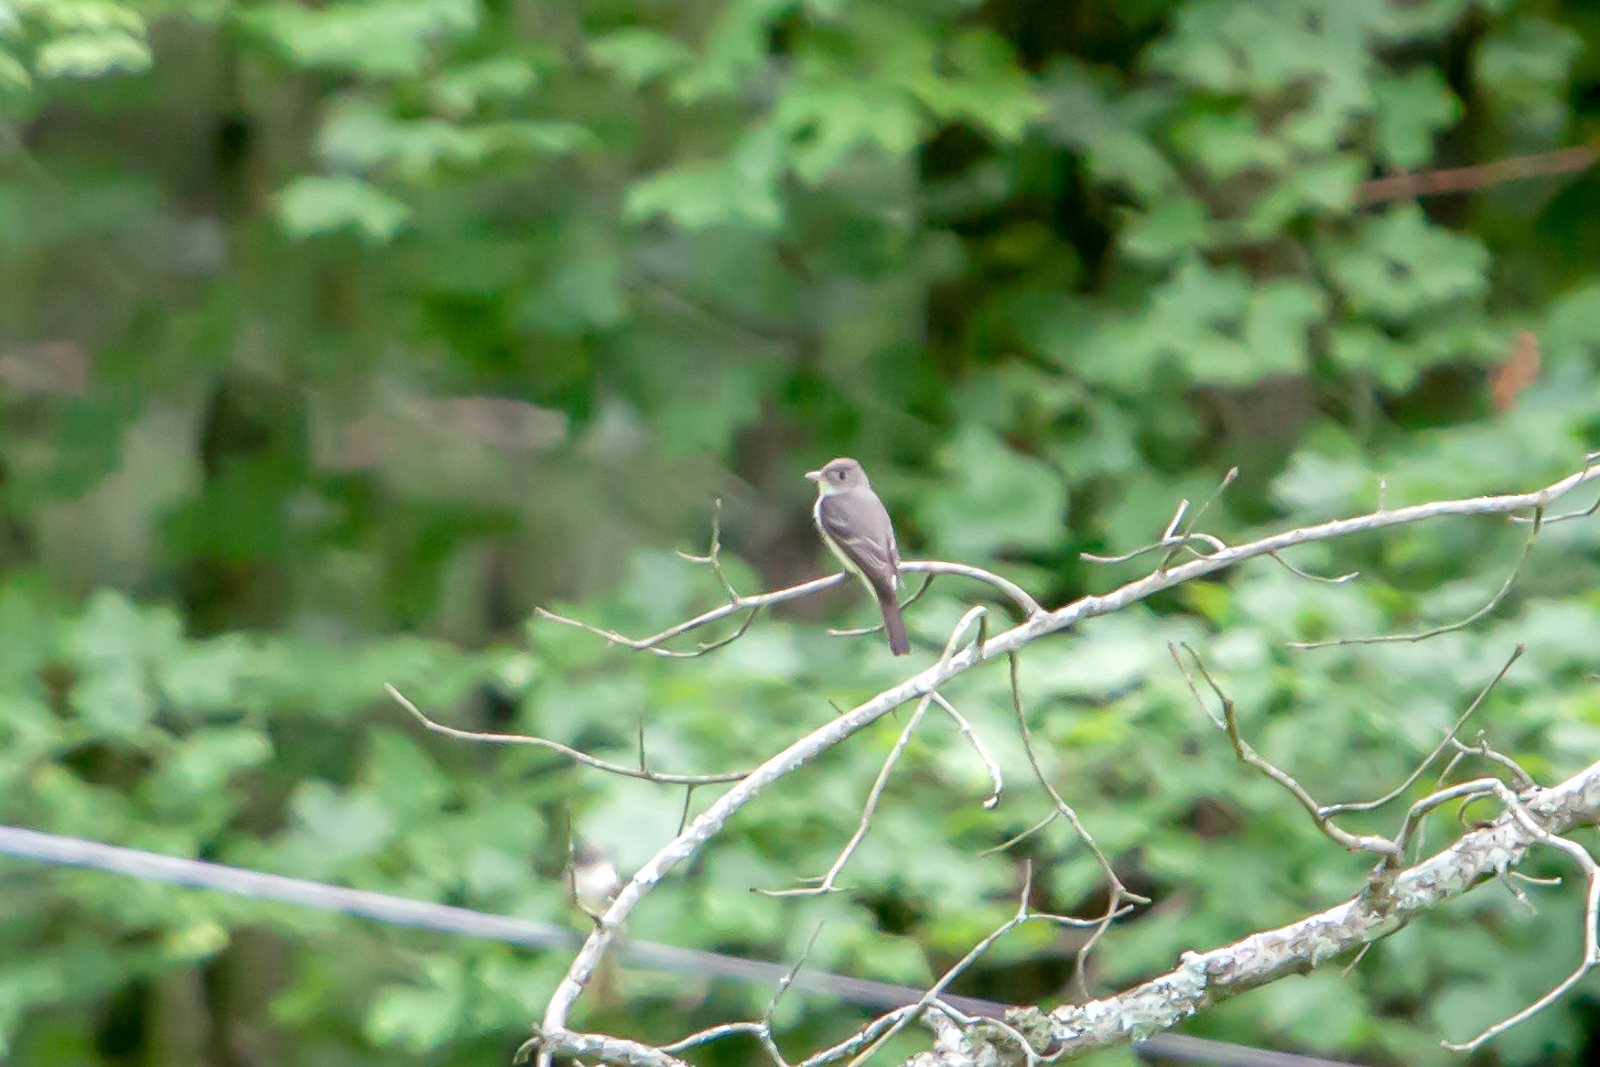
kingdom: Animalia
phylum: Chordata
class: Aves
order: Passeriformes
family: Tyrannidae
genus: Contopus
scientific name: Contopus virens
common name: Eastern wood-pewee
